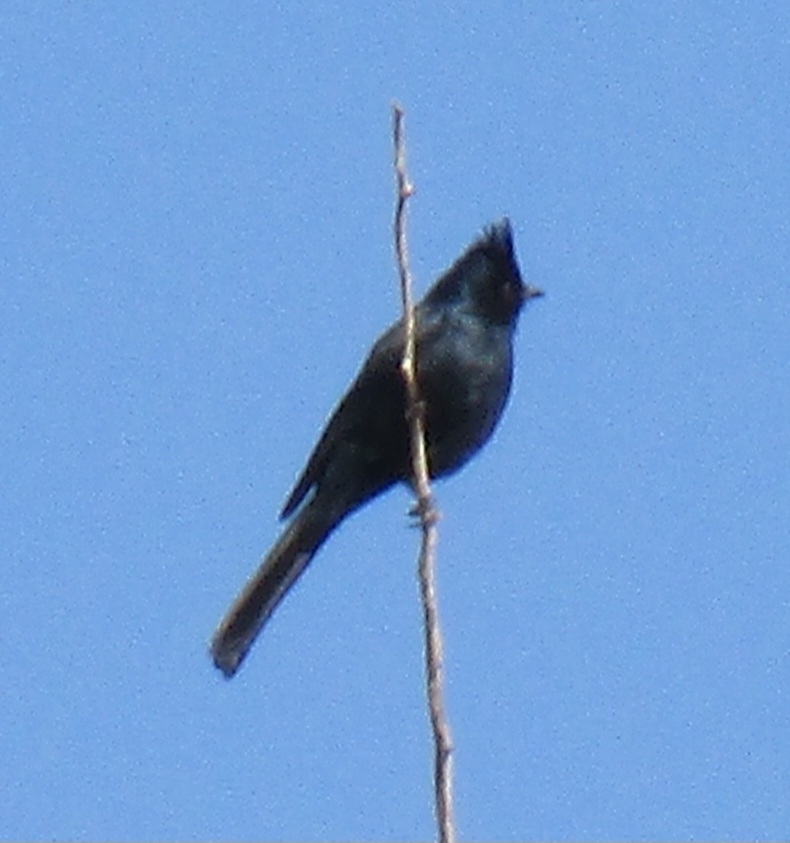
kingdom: Animalia
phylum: Chordata
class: Aves
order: Passeriformes
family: Ptilogonatidae
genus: Phainopepla
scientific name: Phainopepla nitens
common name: Phainopepla
